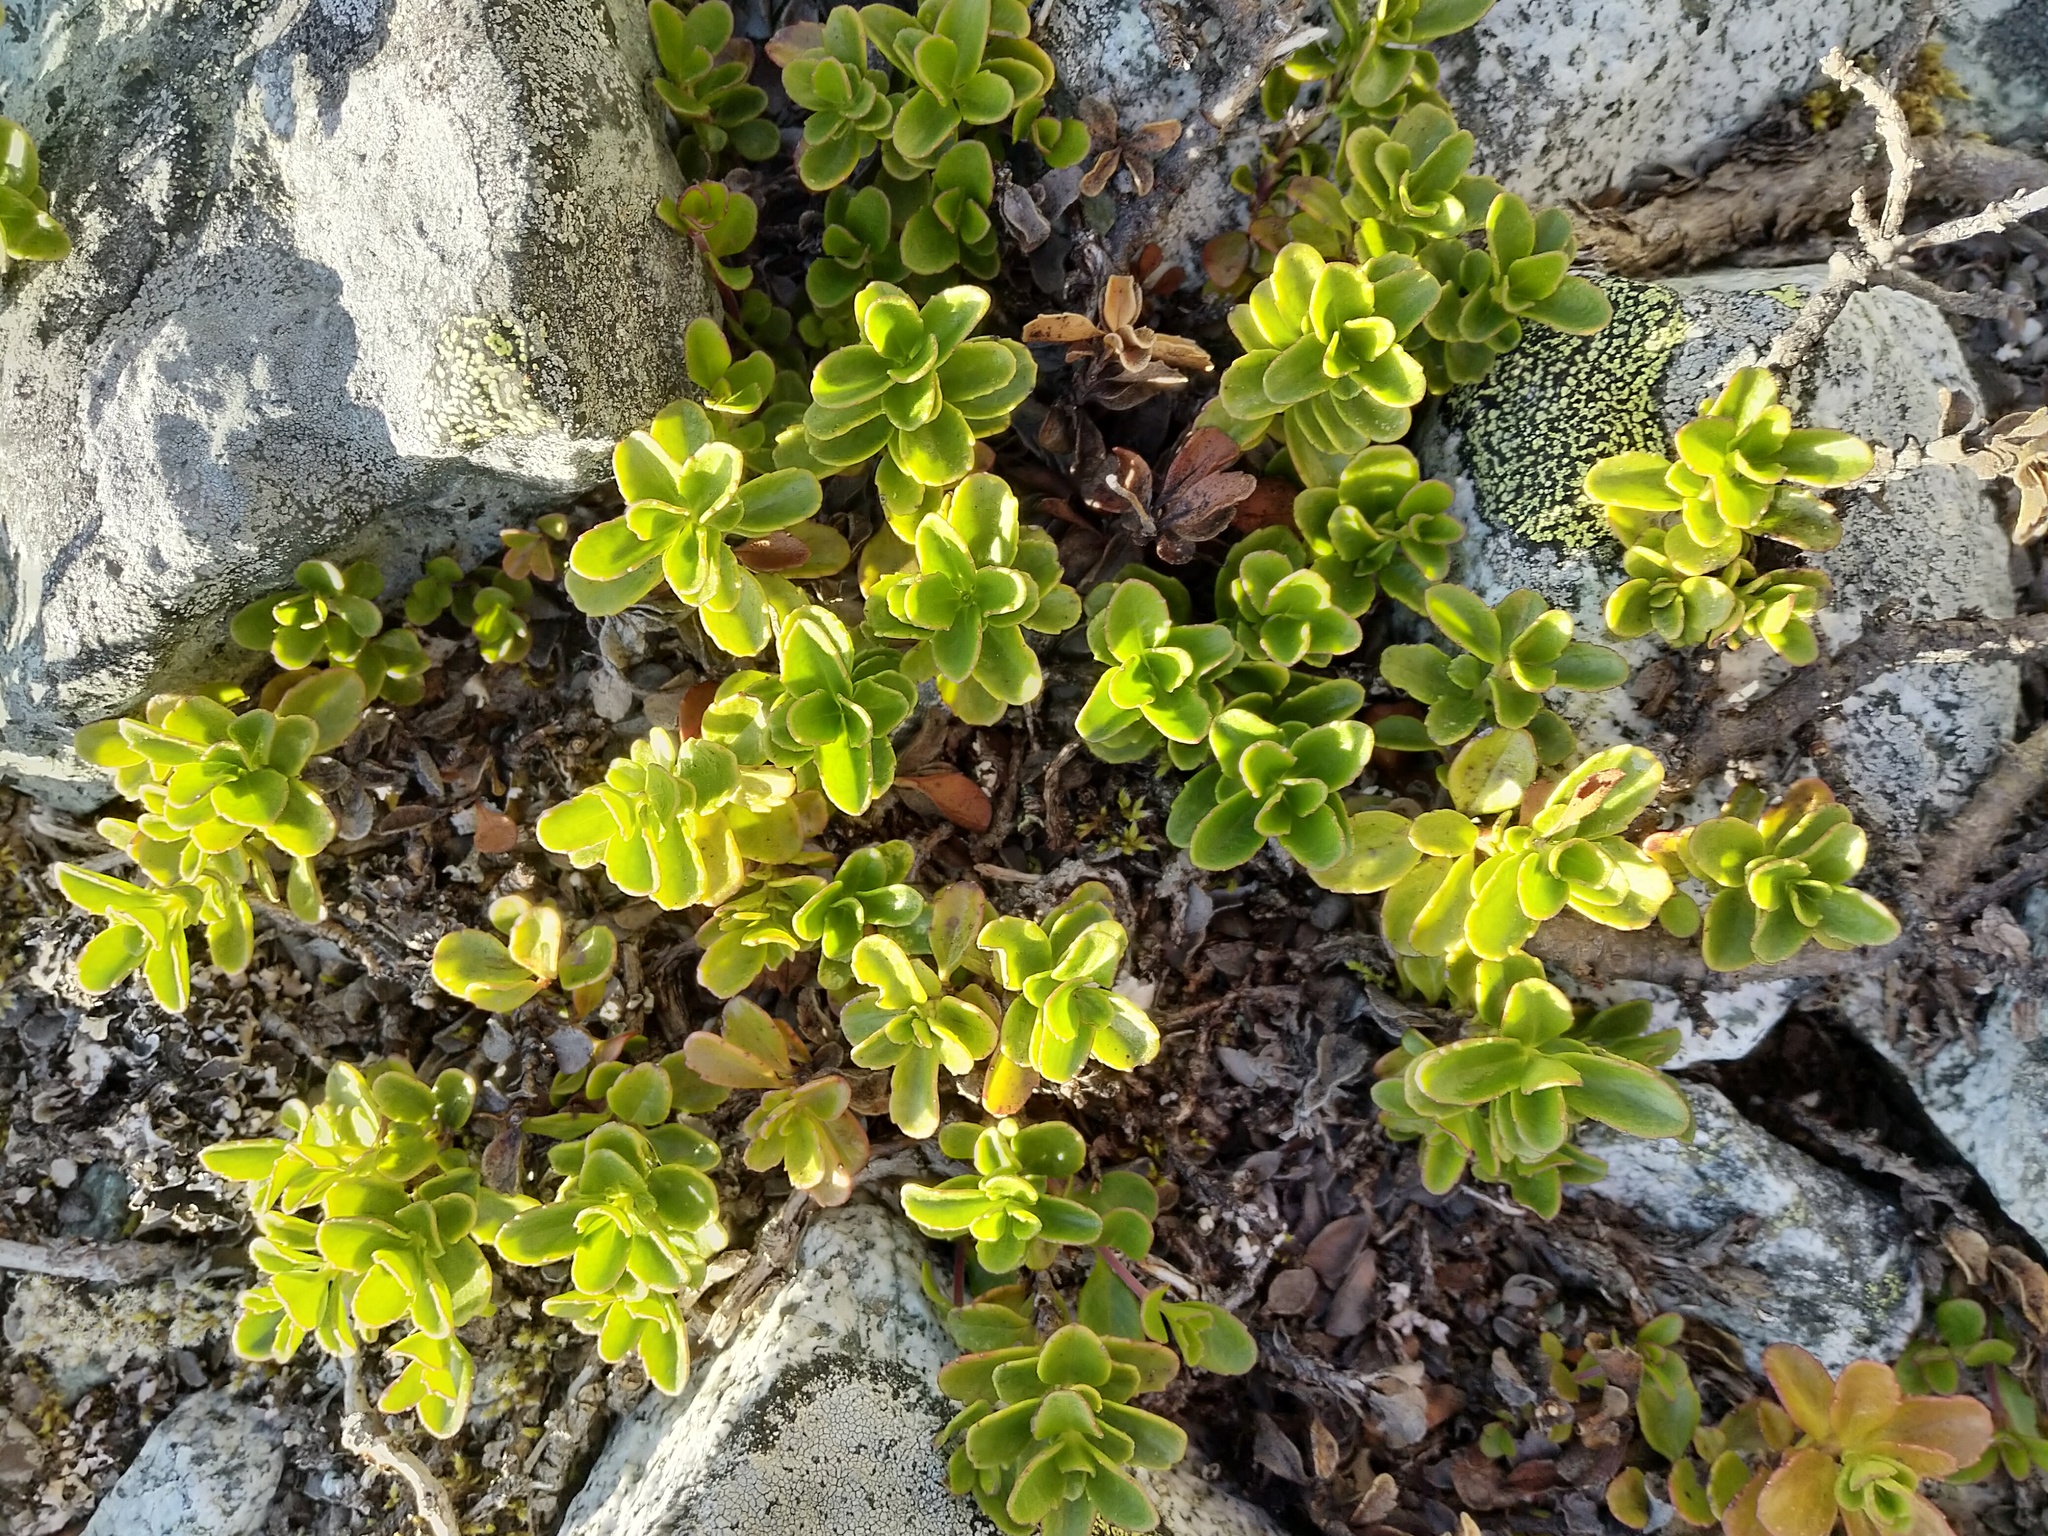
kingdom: Plantae
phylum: Tracheophyta
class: Magnoliopsida
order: Lamiales
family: Plantaginaceae
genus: Penstemon
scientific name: Penstemon davidsonii
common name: Davidson's penstemon
